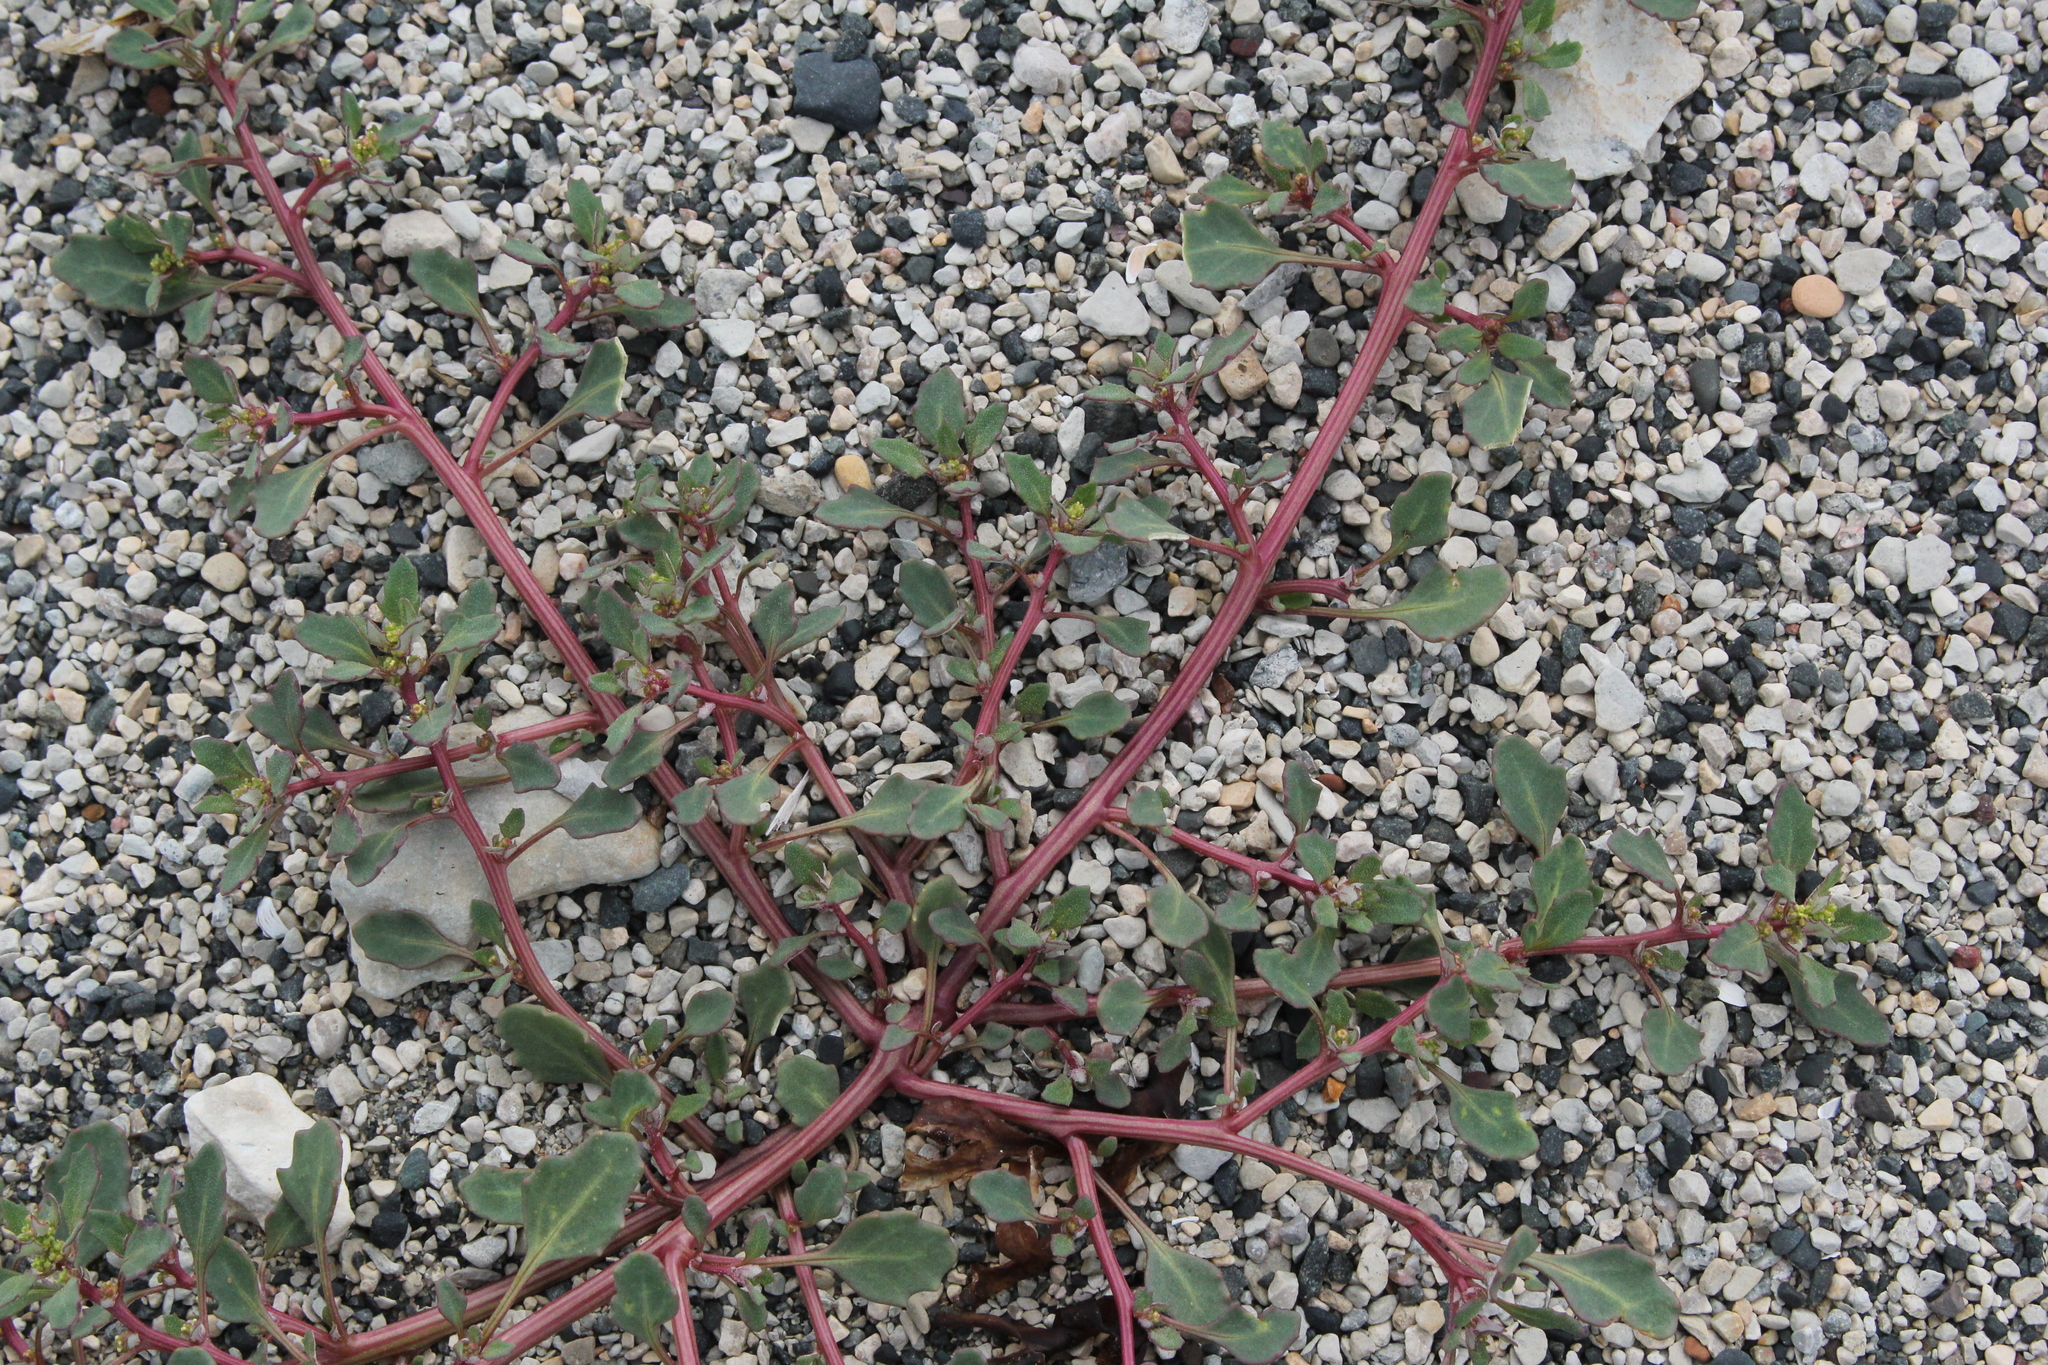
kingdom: Plantae
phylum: Tracheophyta
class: Magnoliopsida
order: Caryophyllales
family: Amaranthaceae
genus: Oxybasis
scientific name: Oxybasis salina
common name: Rocky mountain goosefoot
